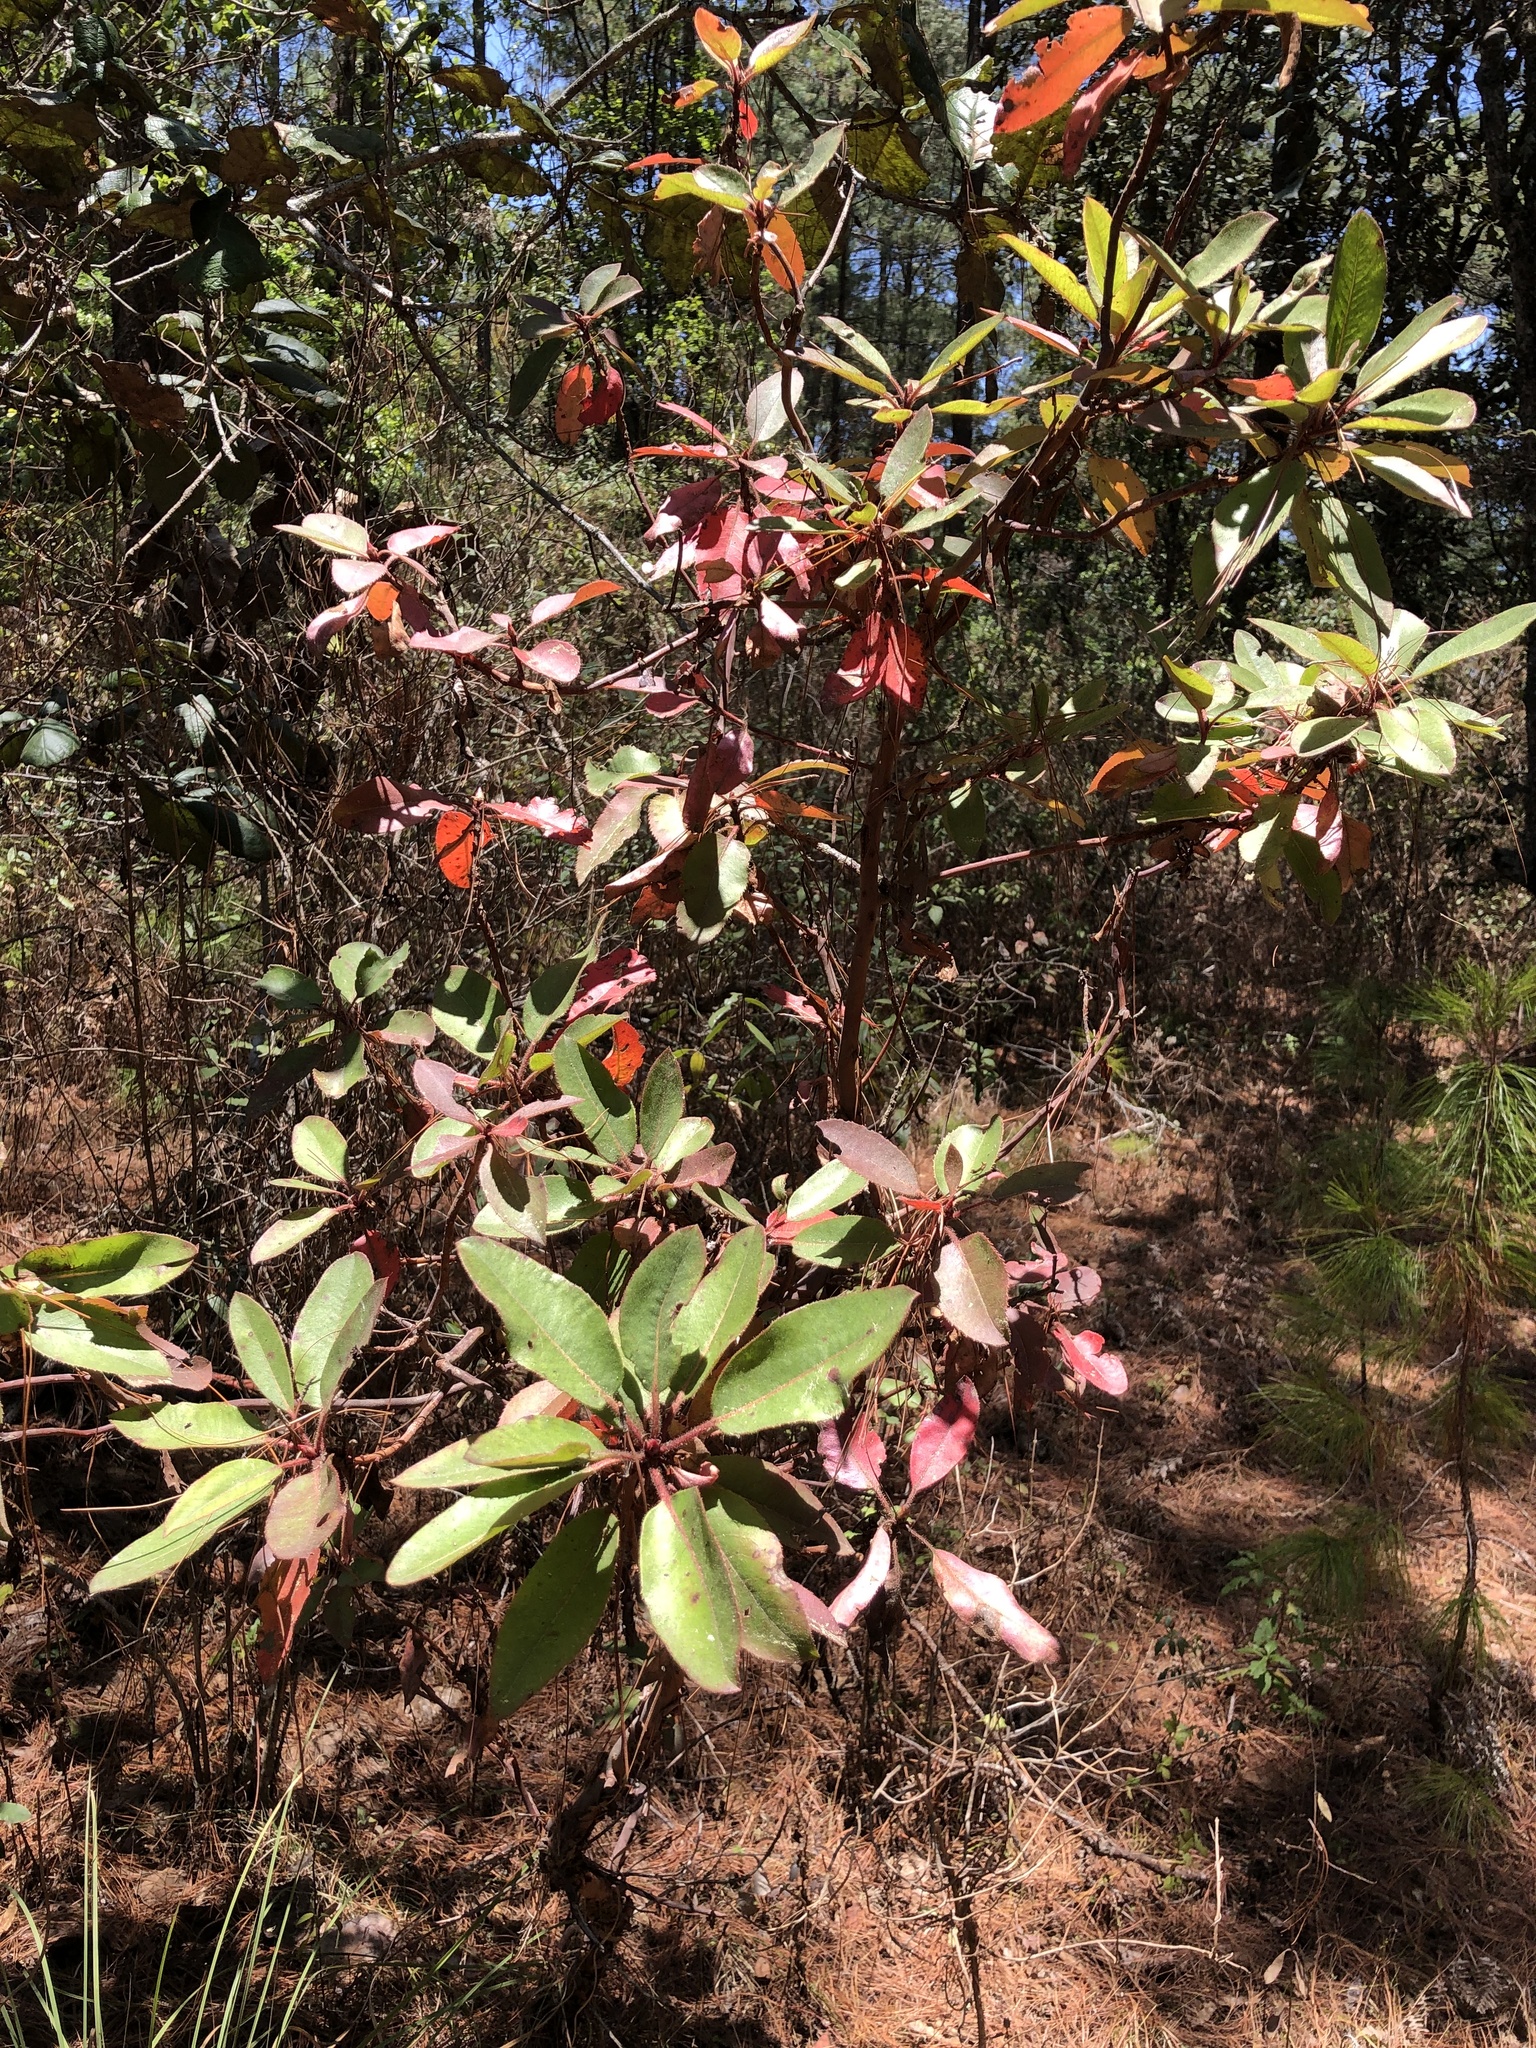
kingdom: Plantae
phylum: Tracheophyta
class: Magnoliopsida
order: Ericales
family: Ericaceae
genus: Arbutus
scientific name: Arbutus xalapensis
